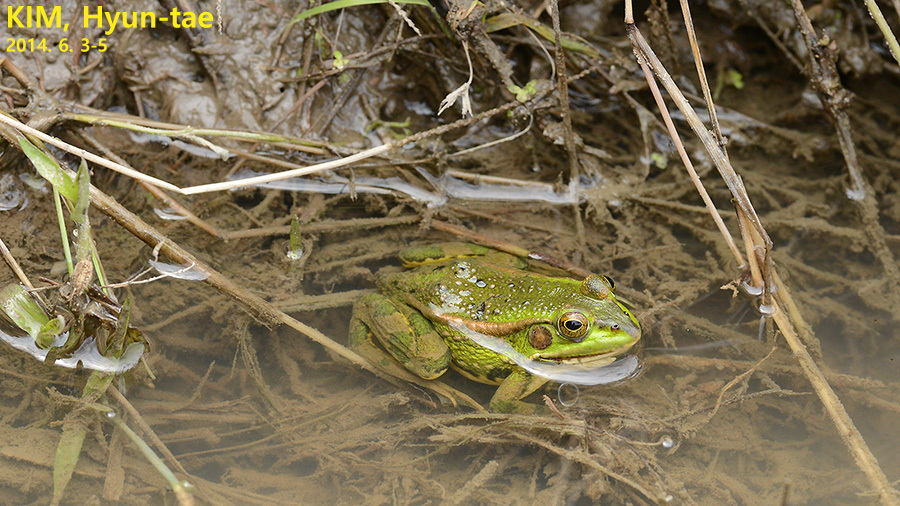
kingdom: Animalia
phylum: Chordata
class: Amphibia
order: Anura
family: Ranidae
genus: Pelophylax
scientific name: Pelophylax chosenicus
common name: Gold-spotted pond frog
